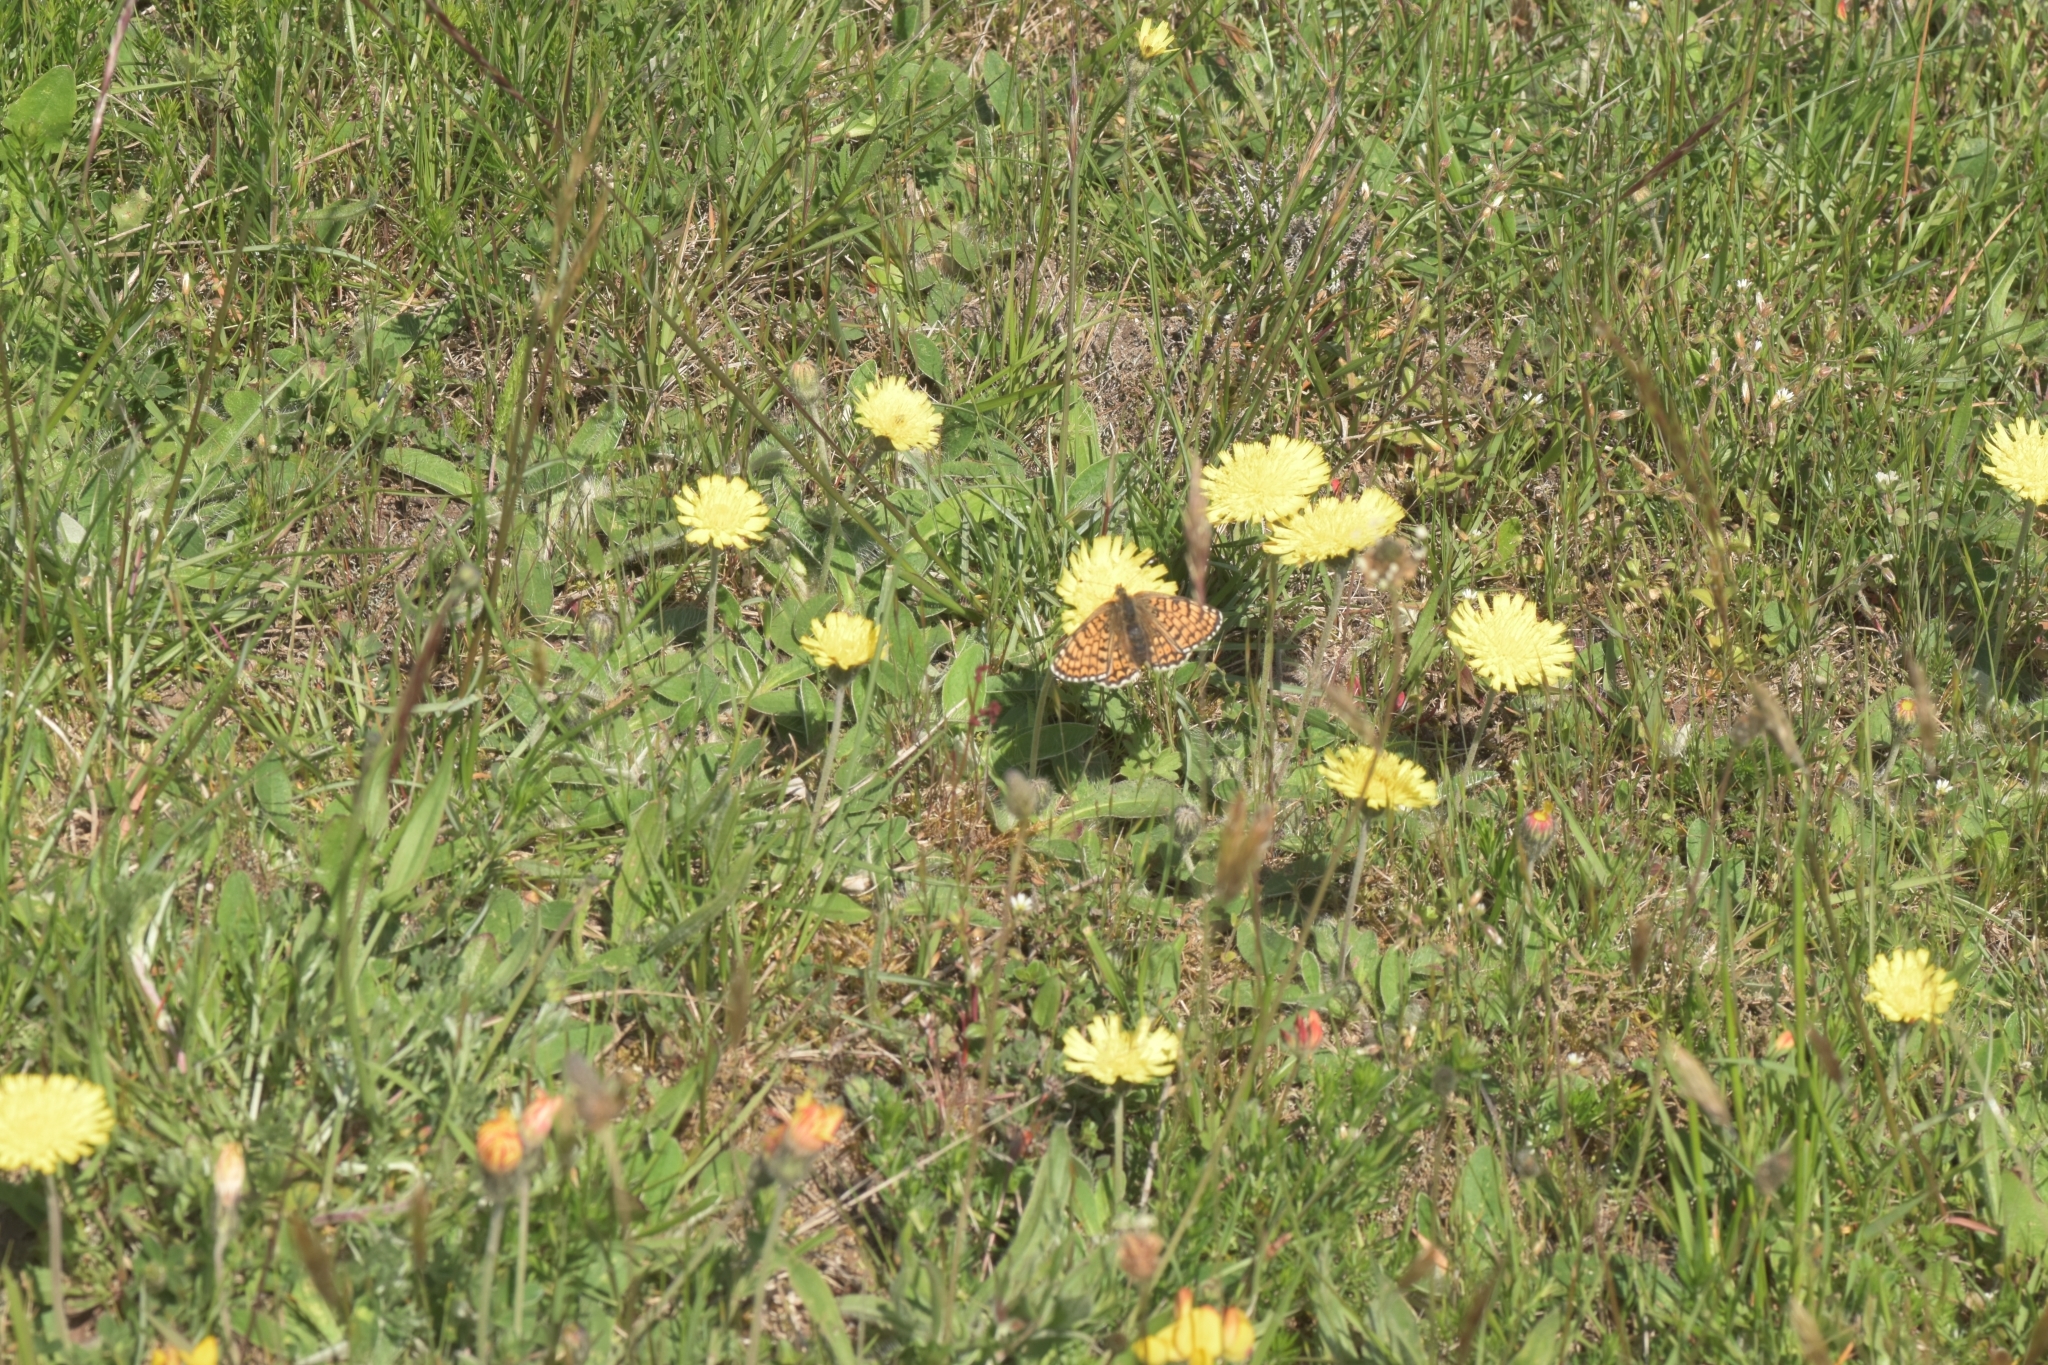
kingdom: Animalia
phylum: Arthropoda
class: Insecta
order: Lepidoptera
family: Nymphalidae
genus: Melitaea
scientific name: Melitaea cinxia
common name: Glanville fritillary
